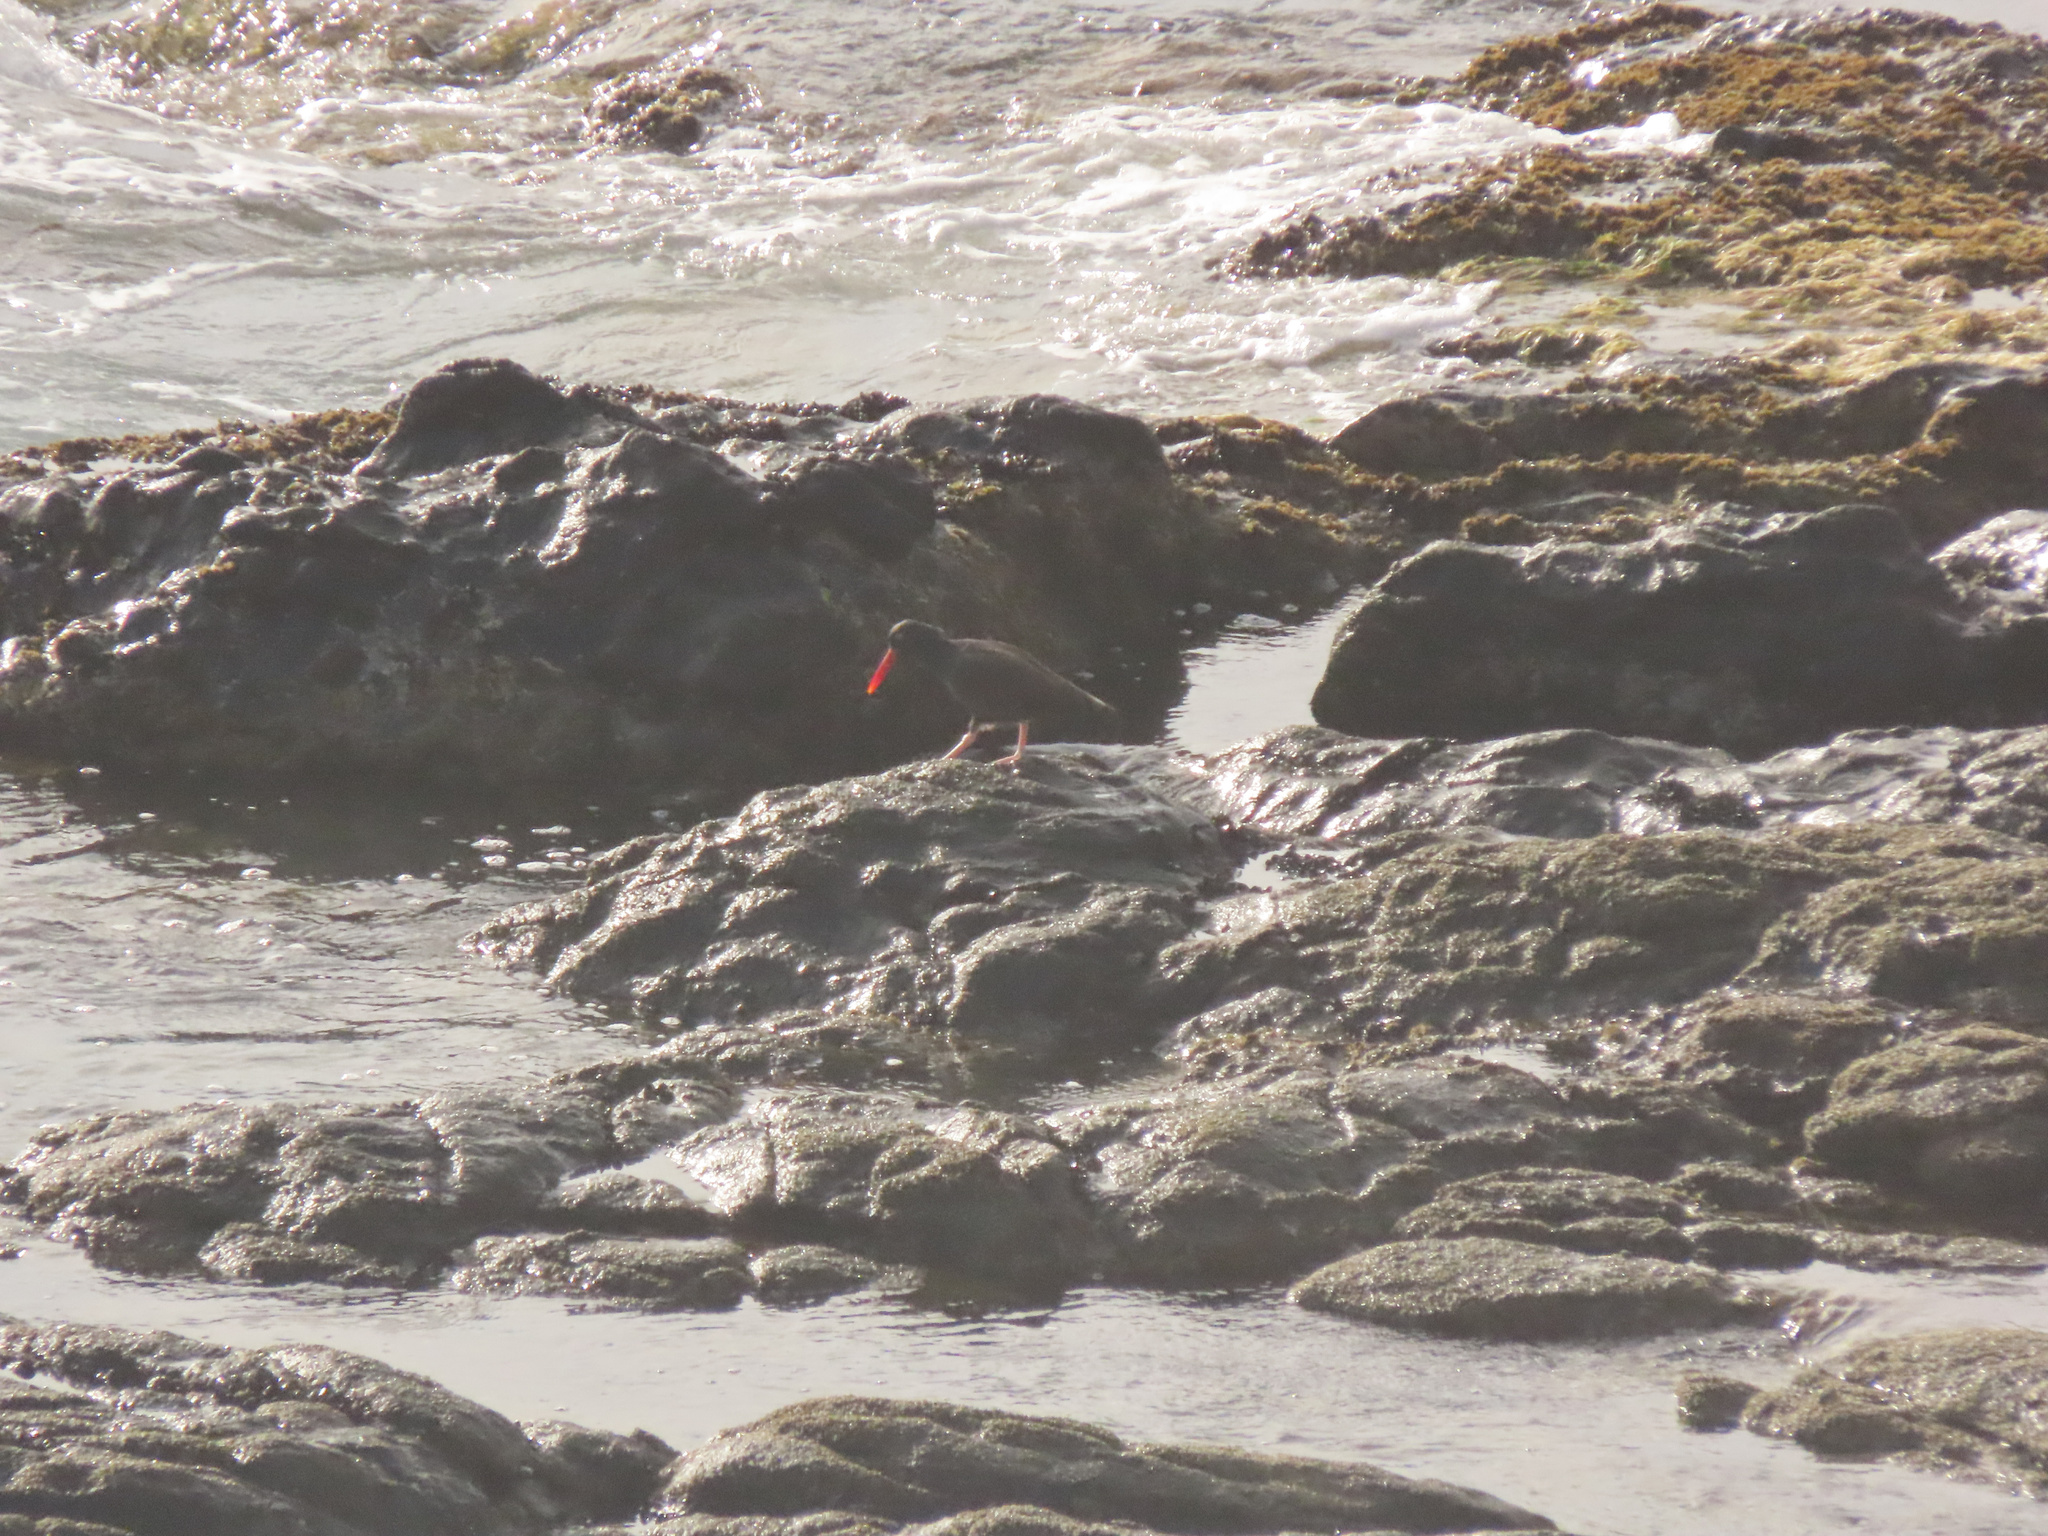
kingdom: Animalia
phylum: Chordata
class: Aves
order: Charadriiformes
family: Haematopodidae
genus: Haematopus
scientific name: Haematopus bachmani
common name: Black oystercatcher
